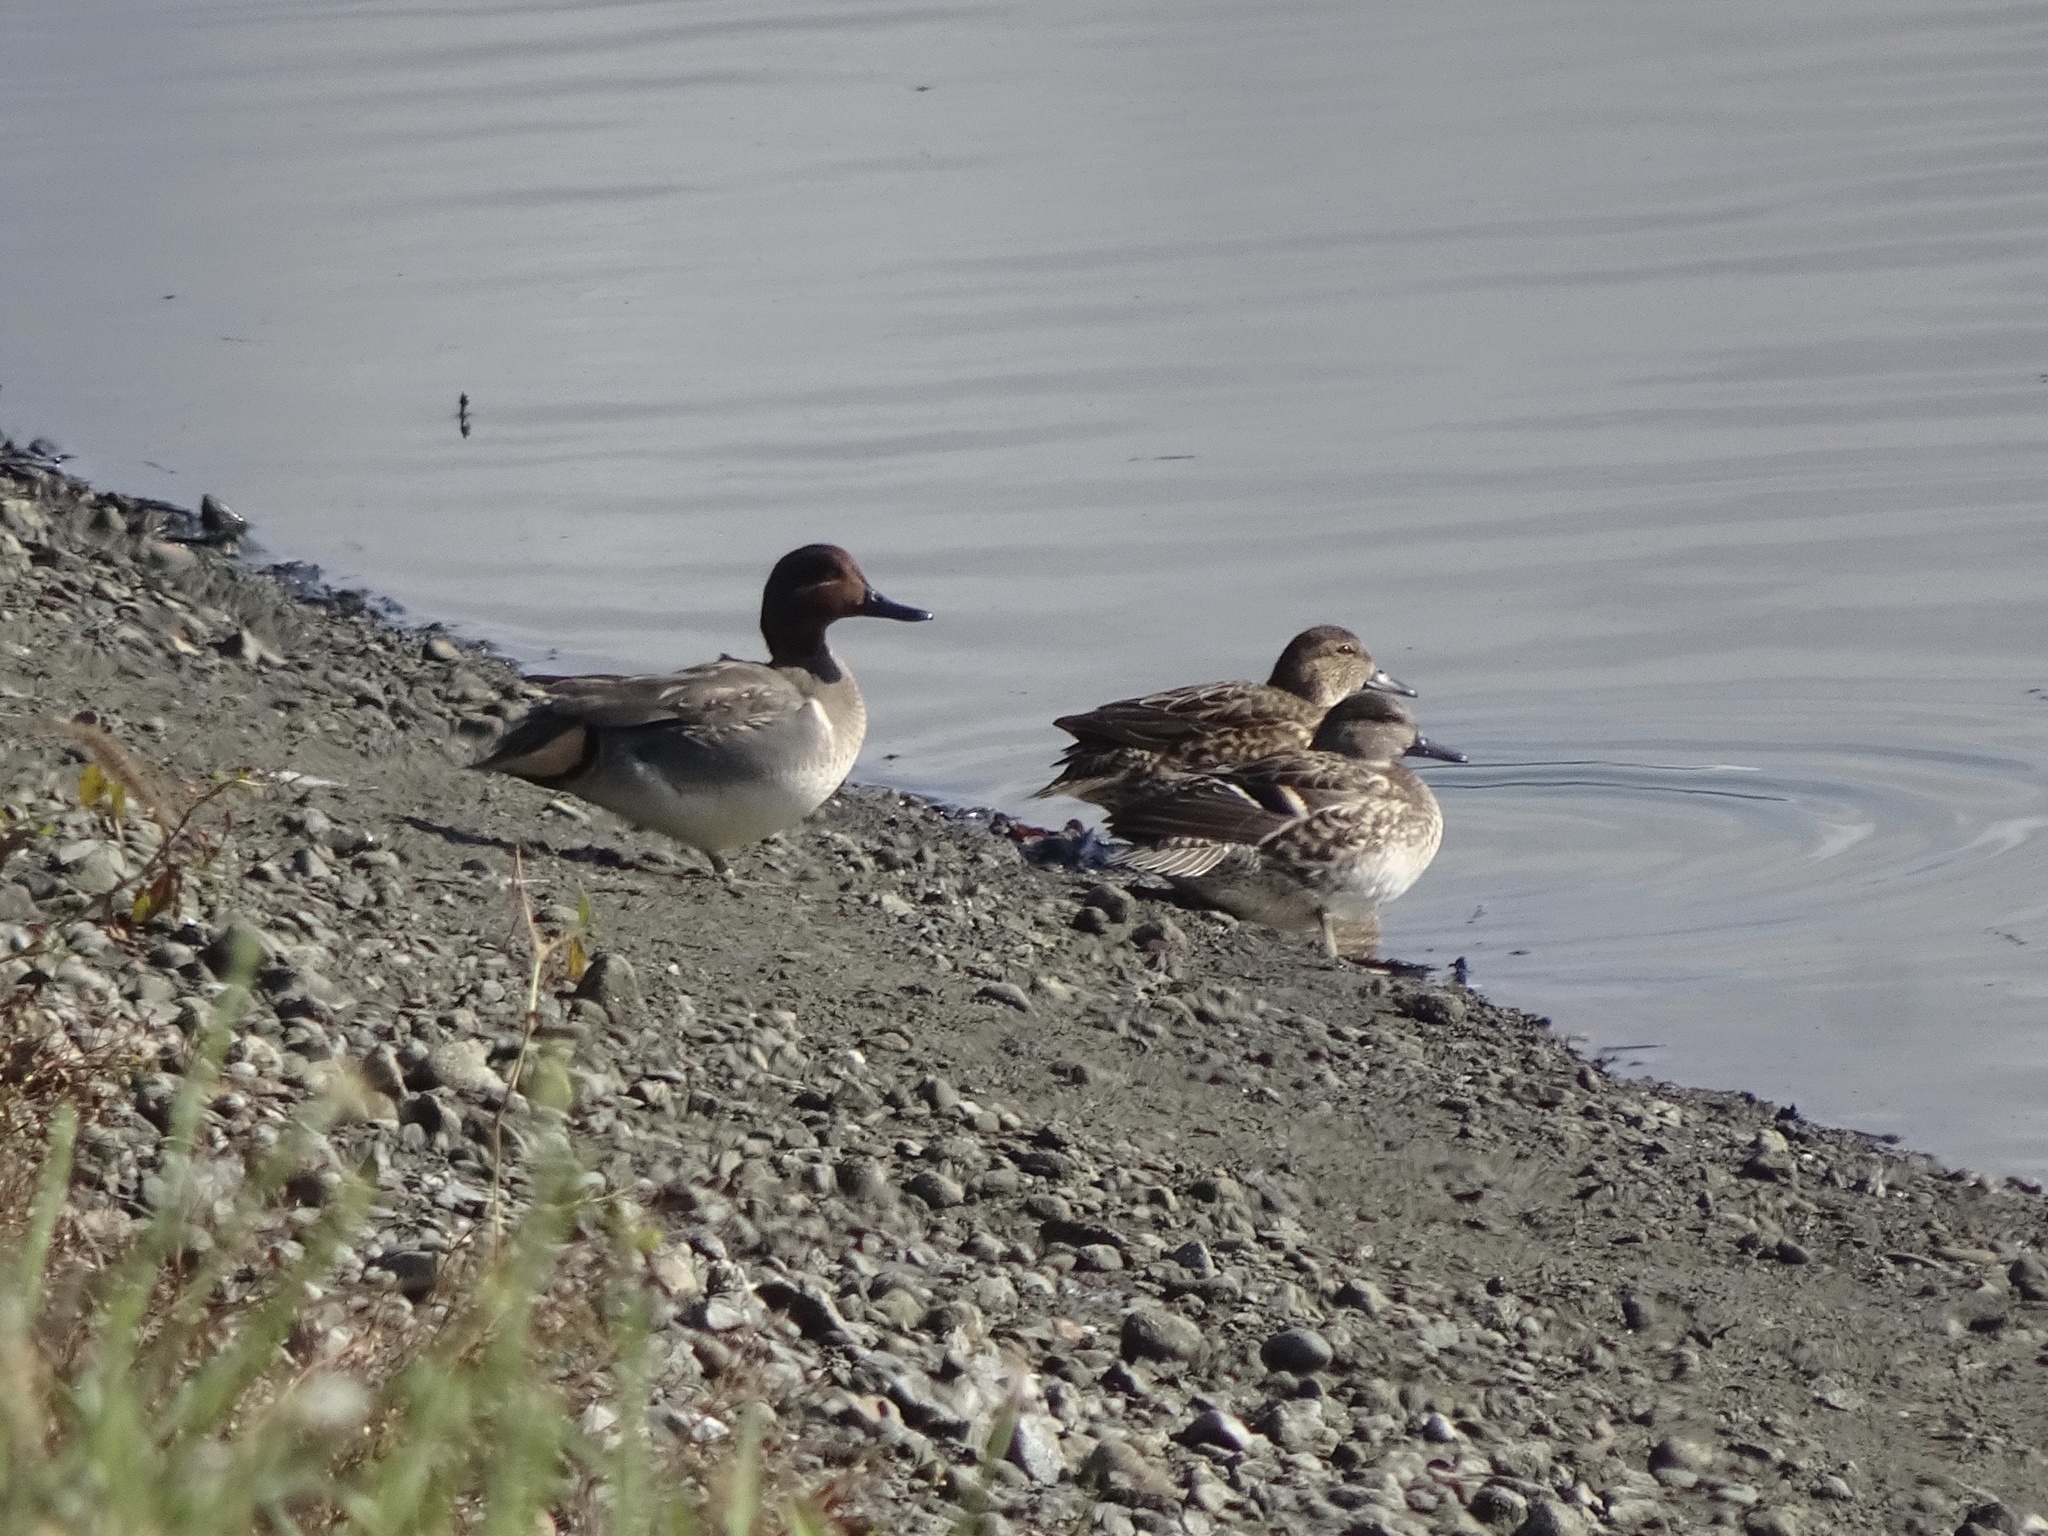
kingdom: Animalia
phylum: Chordata
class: Aves
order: Anseriformes
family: Anatidae
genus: Anas
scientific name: Anas crecca
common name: Eurasian teal
